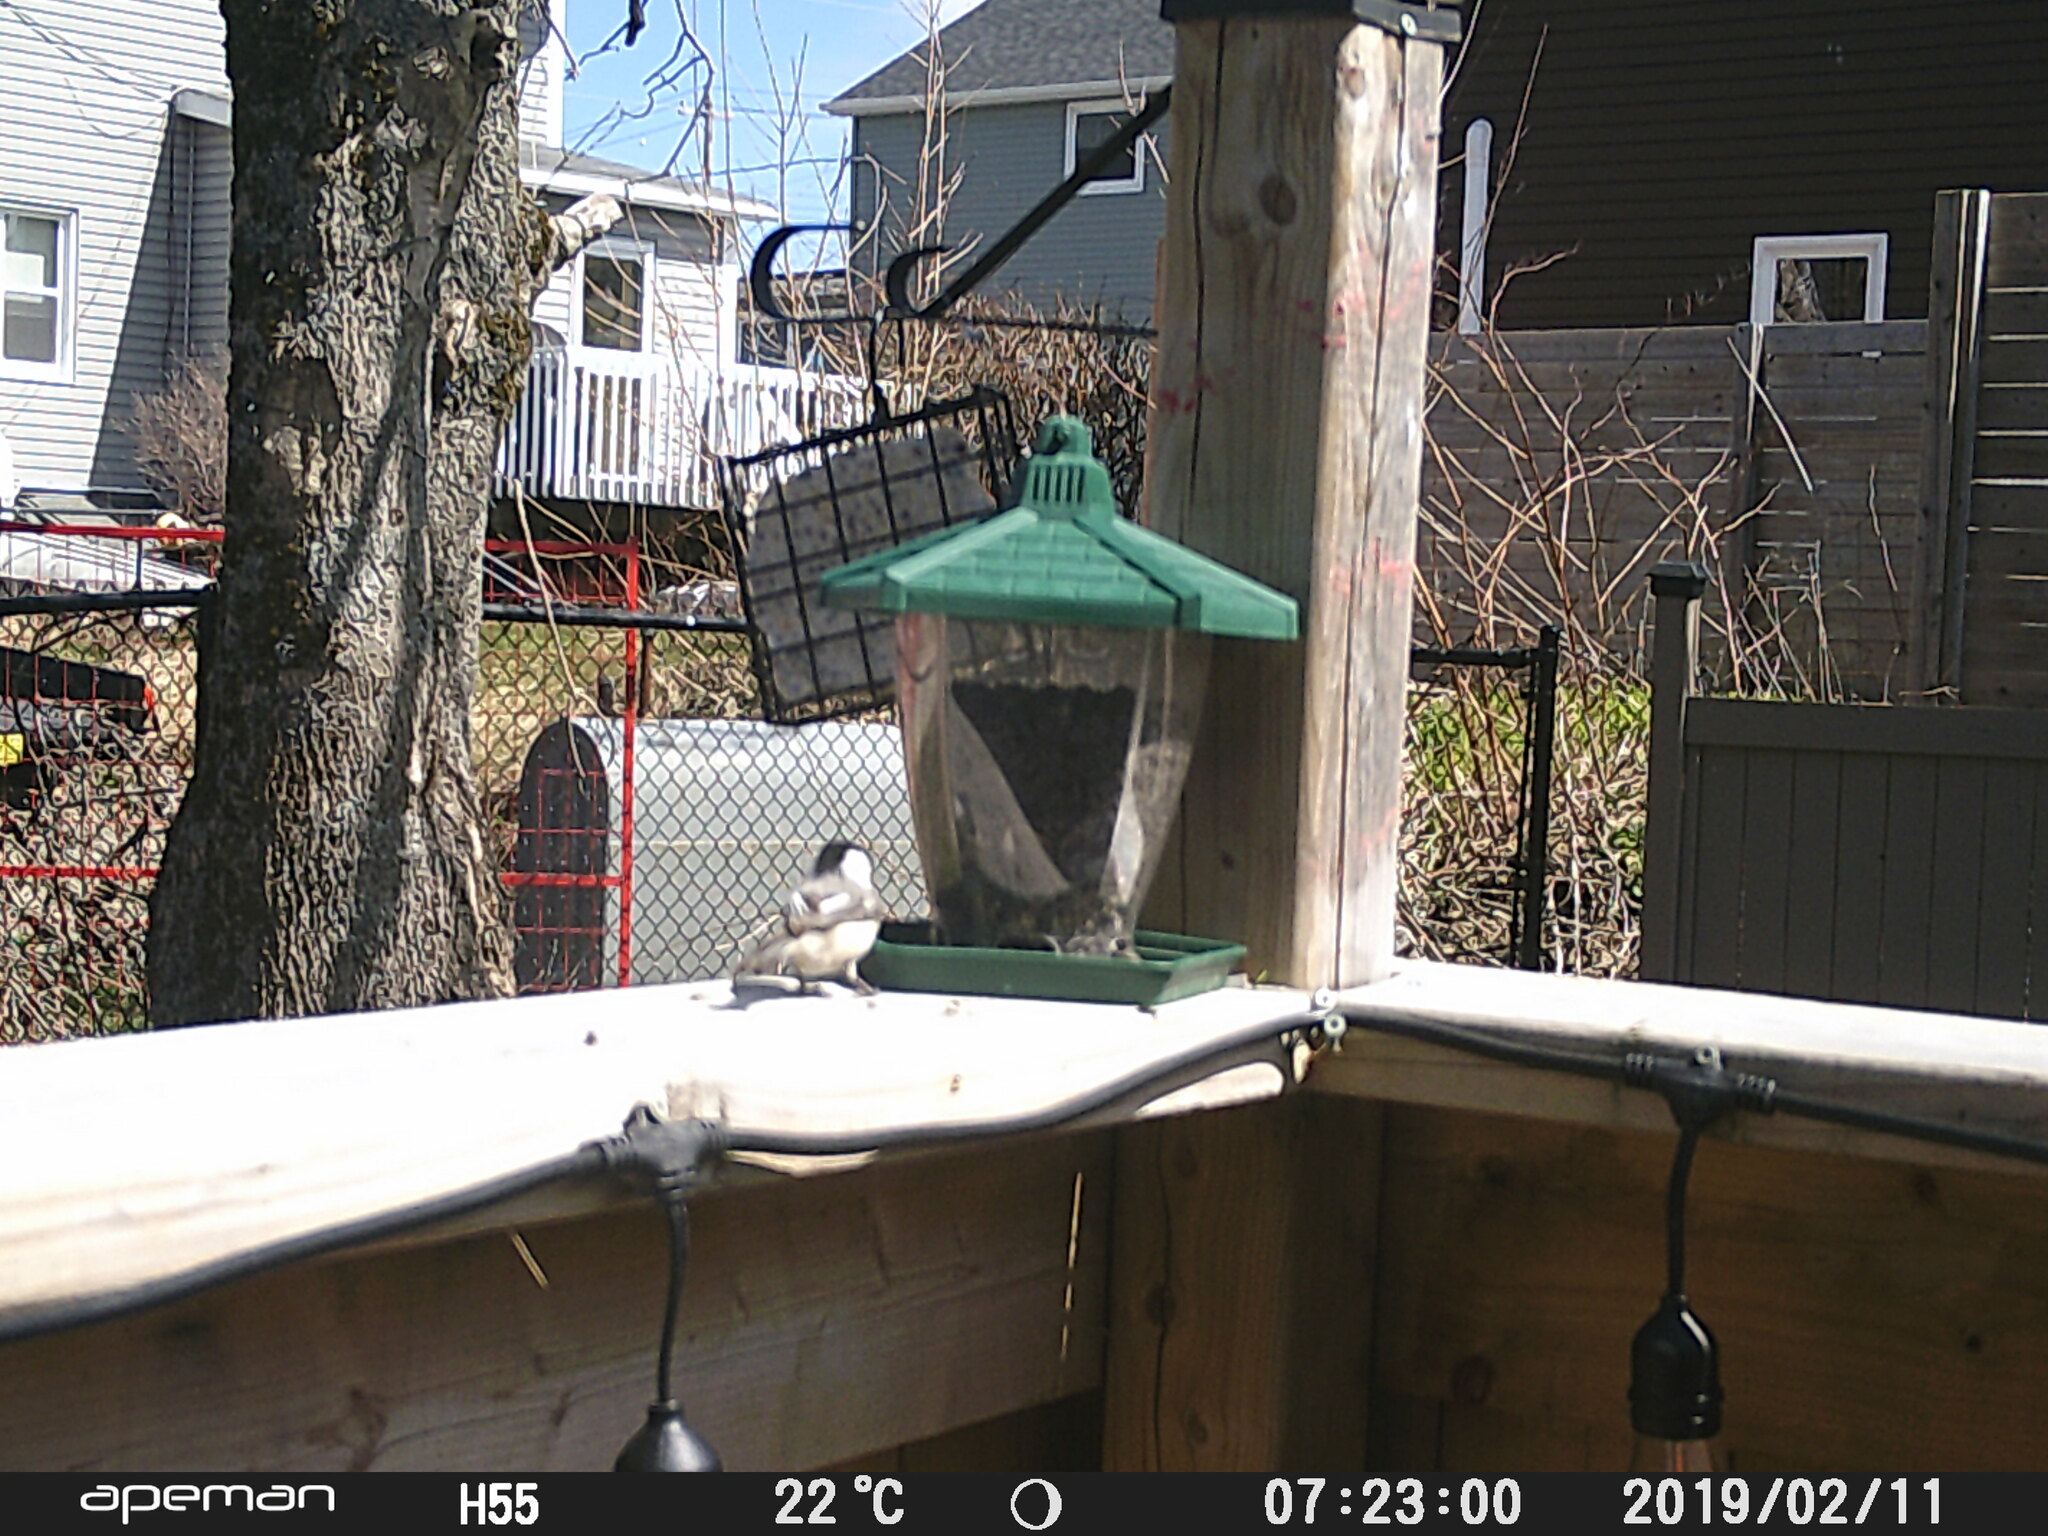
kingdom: Animalia
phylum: Chordata
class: Aves
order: Passeriformes
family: Paridae
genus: Poecile
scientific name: Poecile atricapillus
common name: Black-capped chickadee
